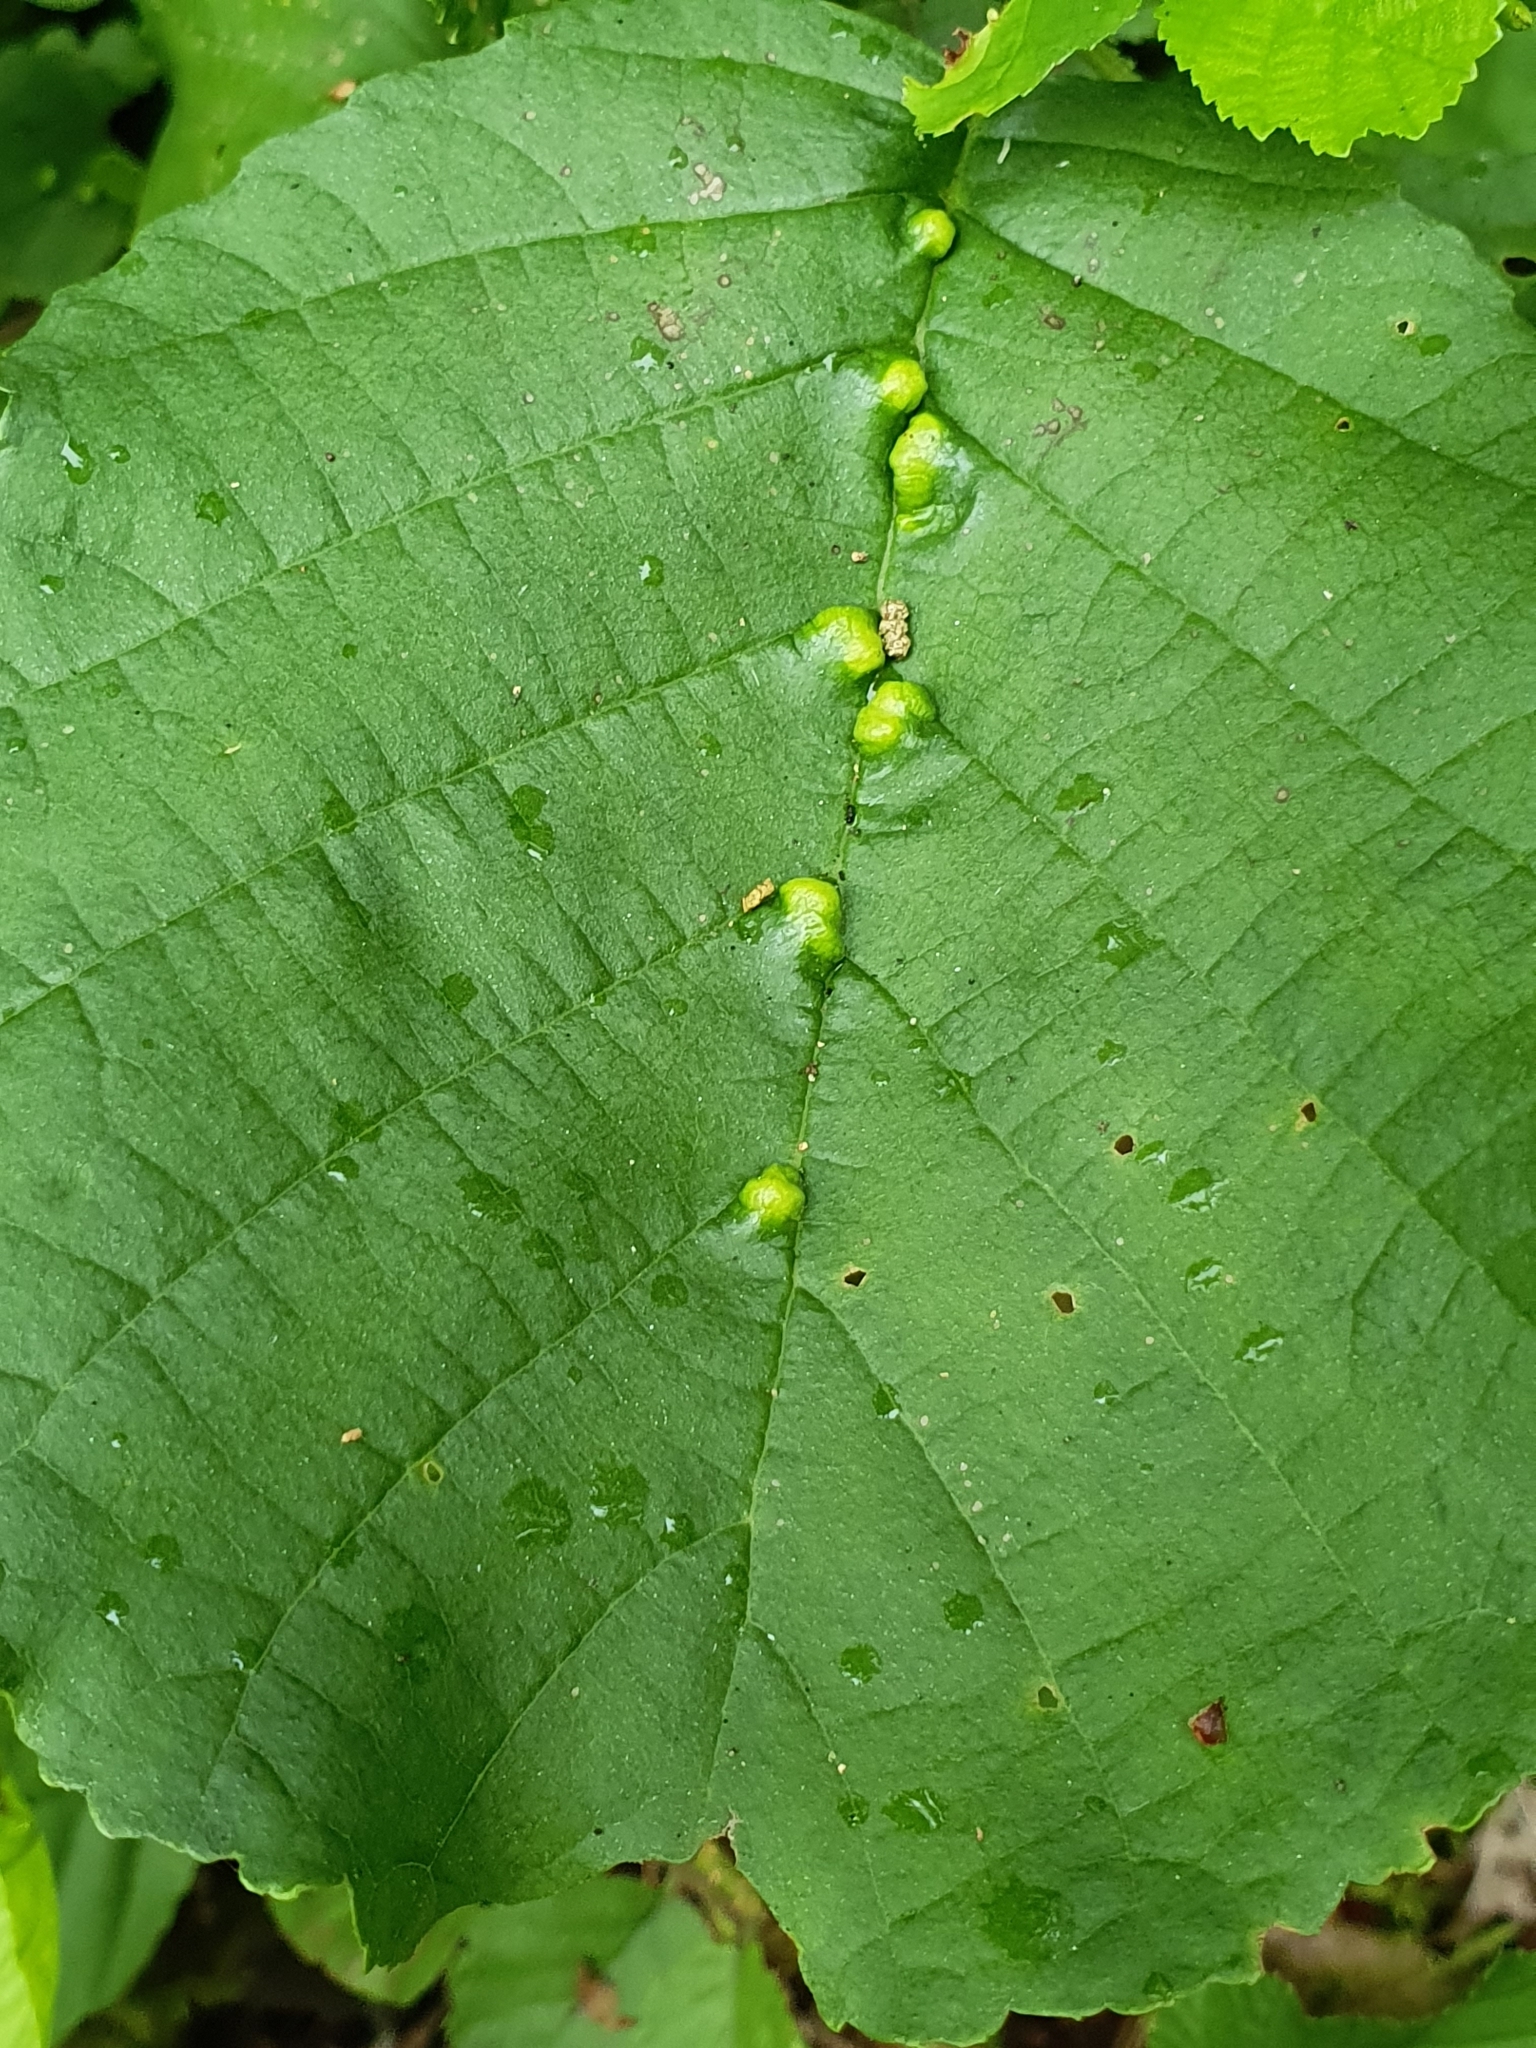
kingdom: Animalia
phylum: Arthropoda
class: Arachnida
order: Trombidiformes
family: Eriophyidae
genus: Eriophyes
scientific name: Eriophyes inangulis
